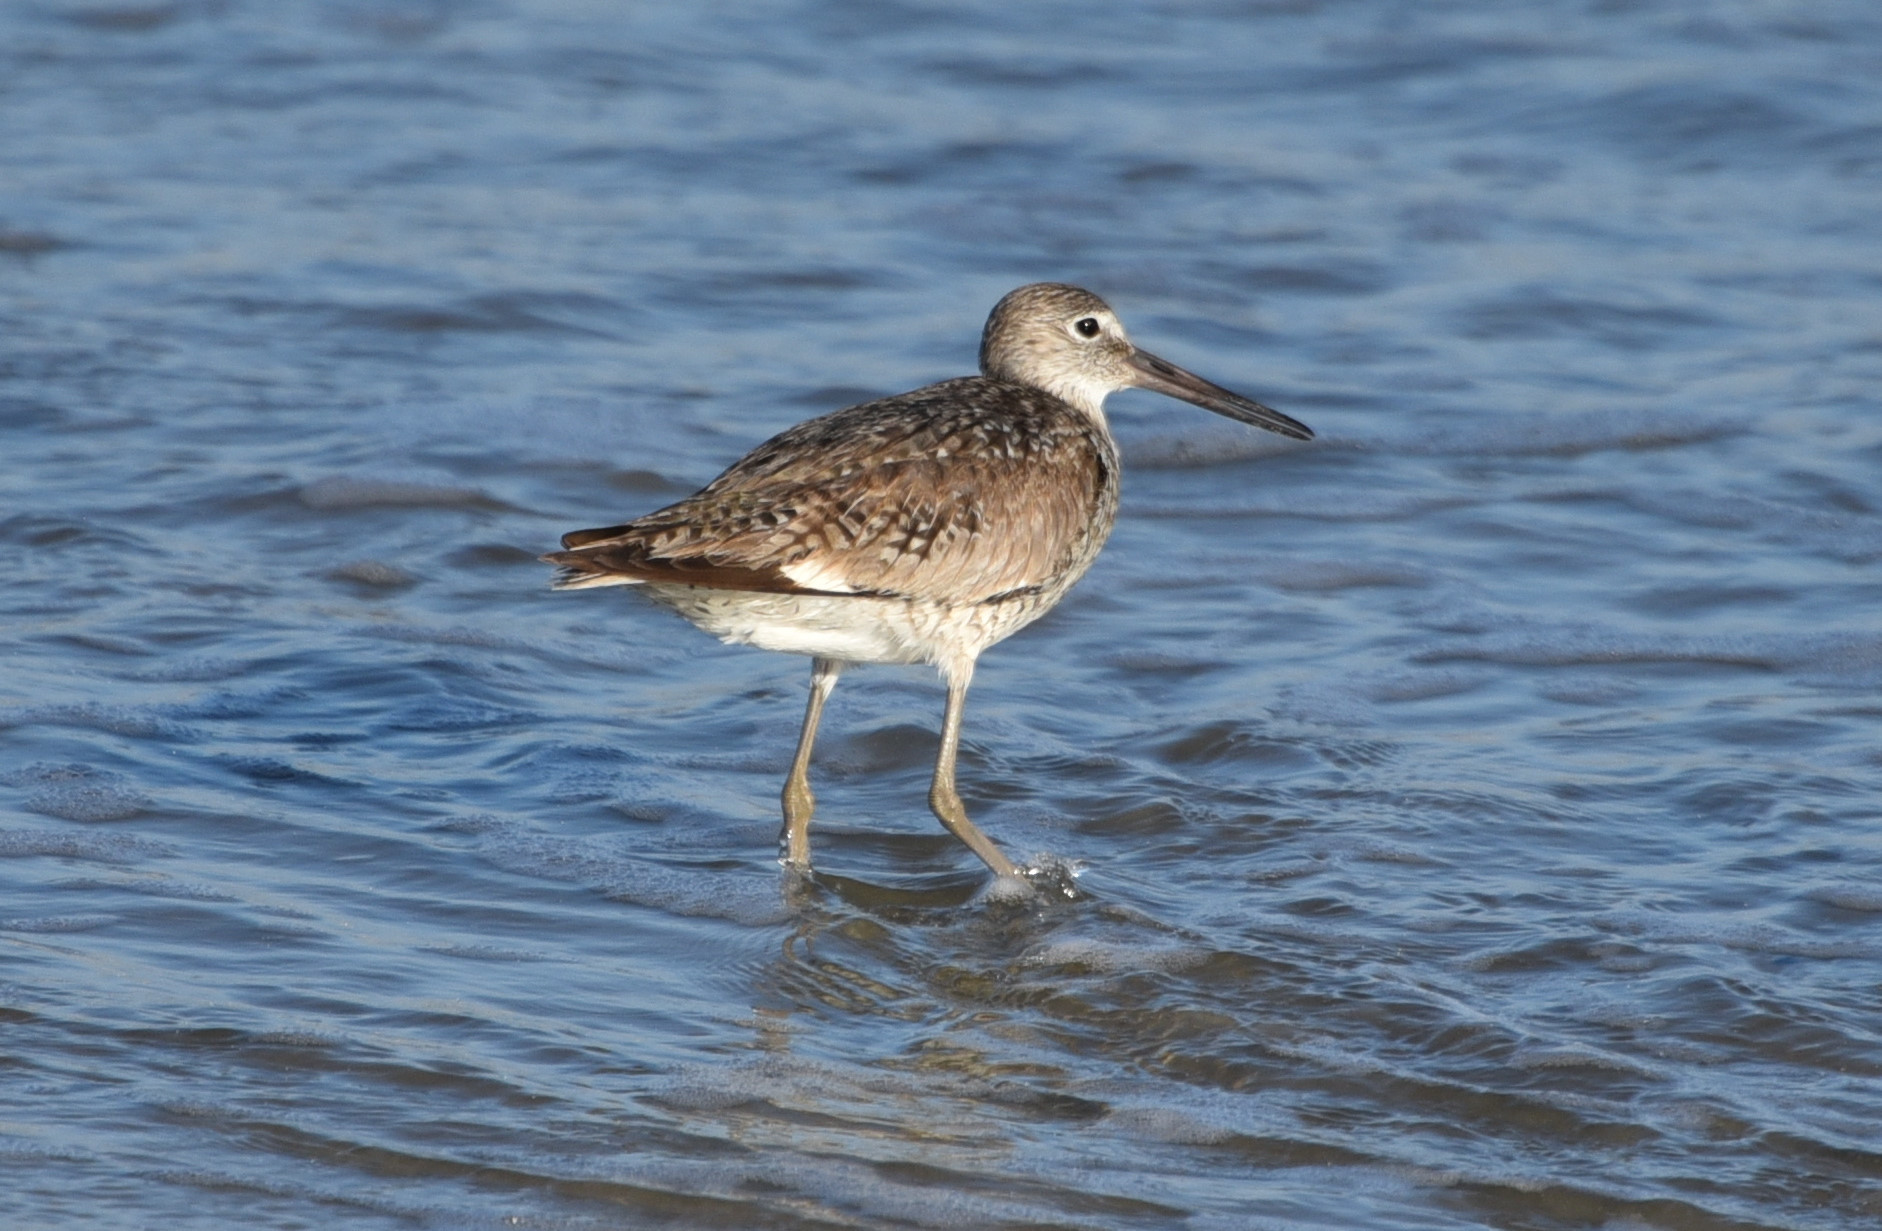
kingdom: Animalia
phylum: Chordata
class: Aves
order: Charadriiformes
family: Scolopacidae
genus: Tringa
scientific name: Tringa semipalmata
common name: Willet
